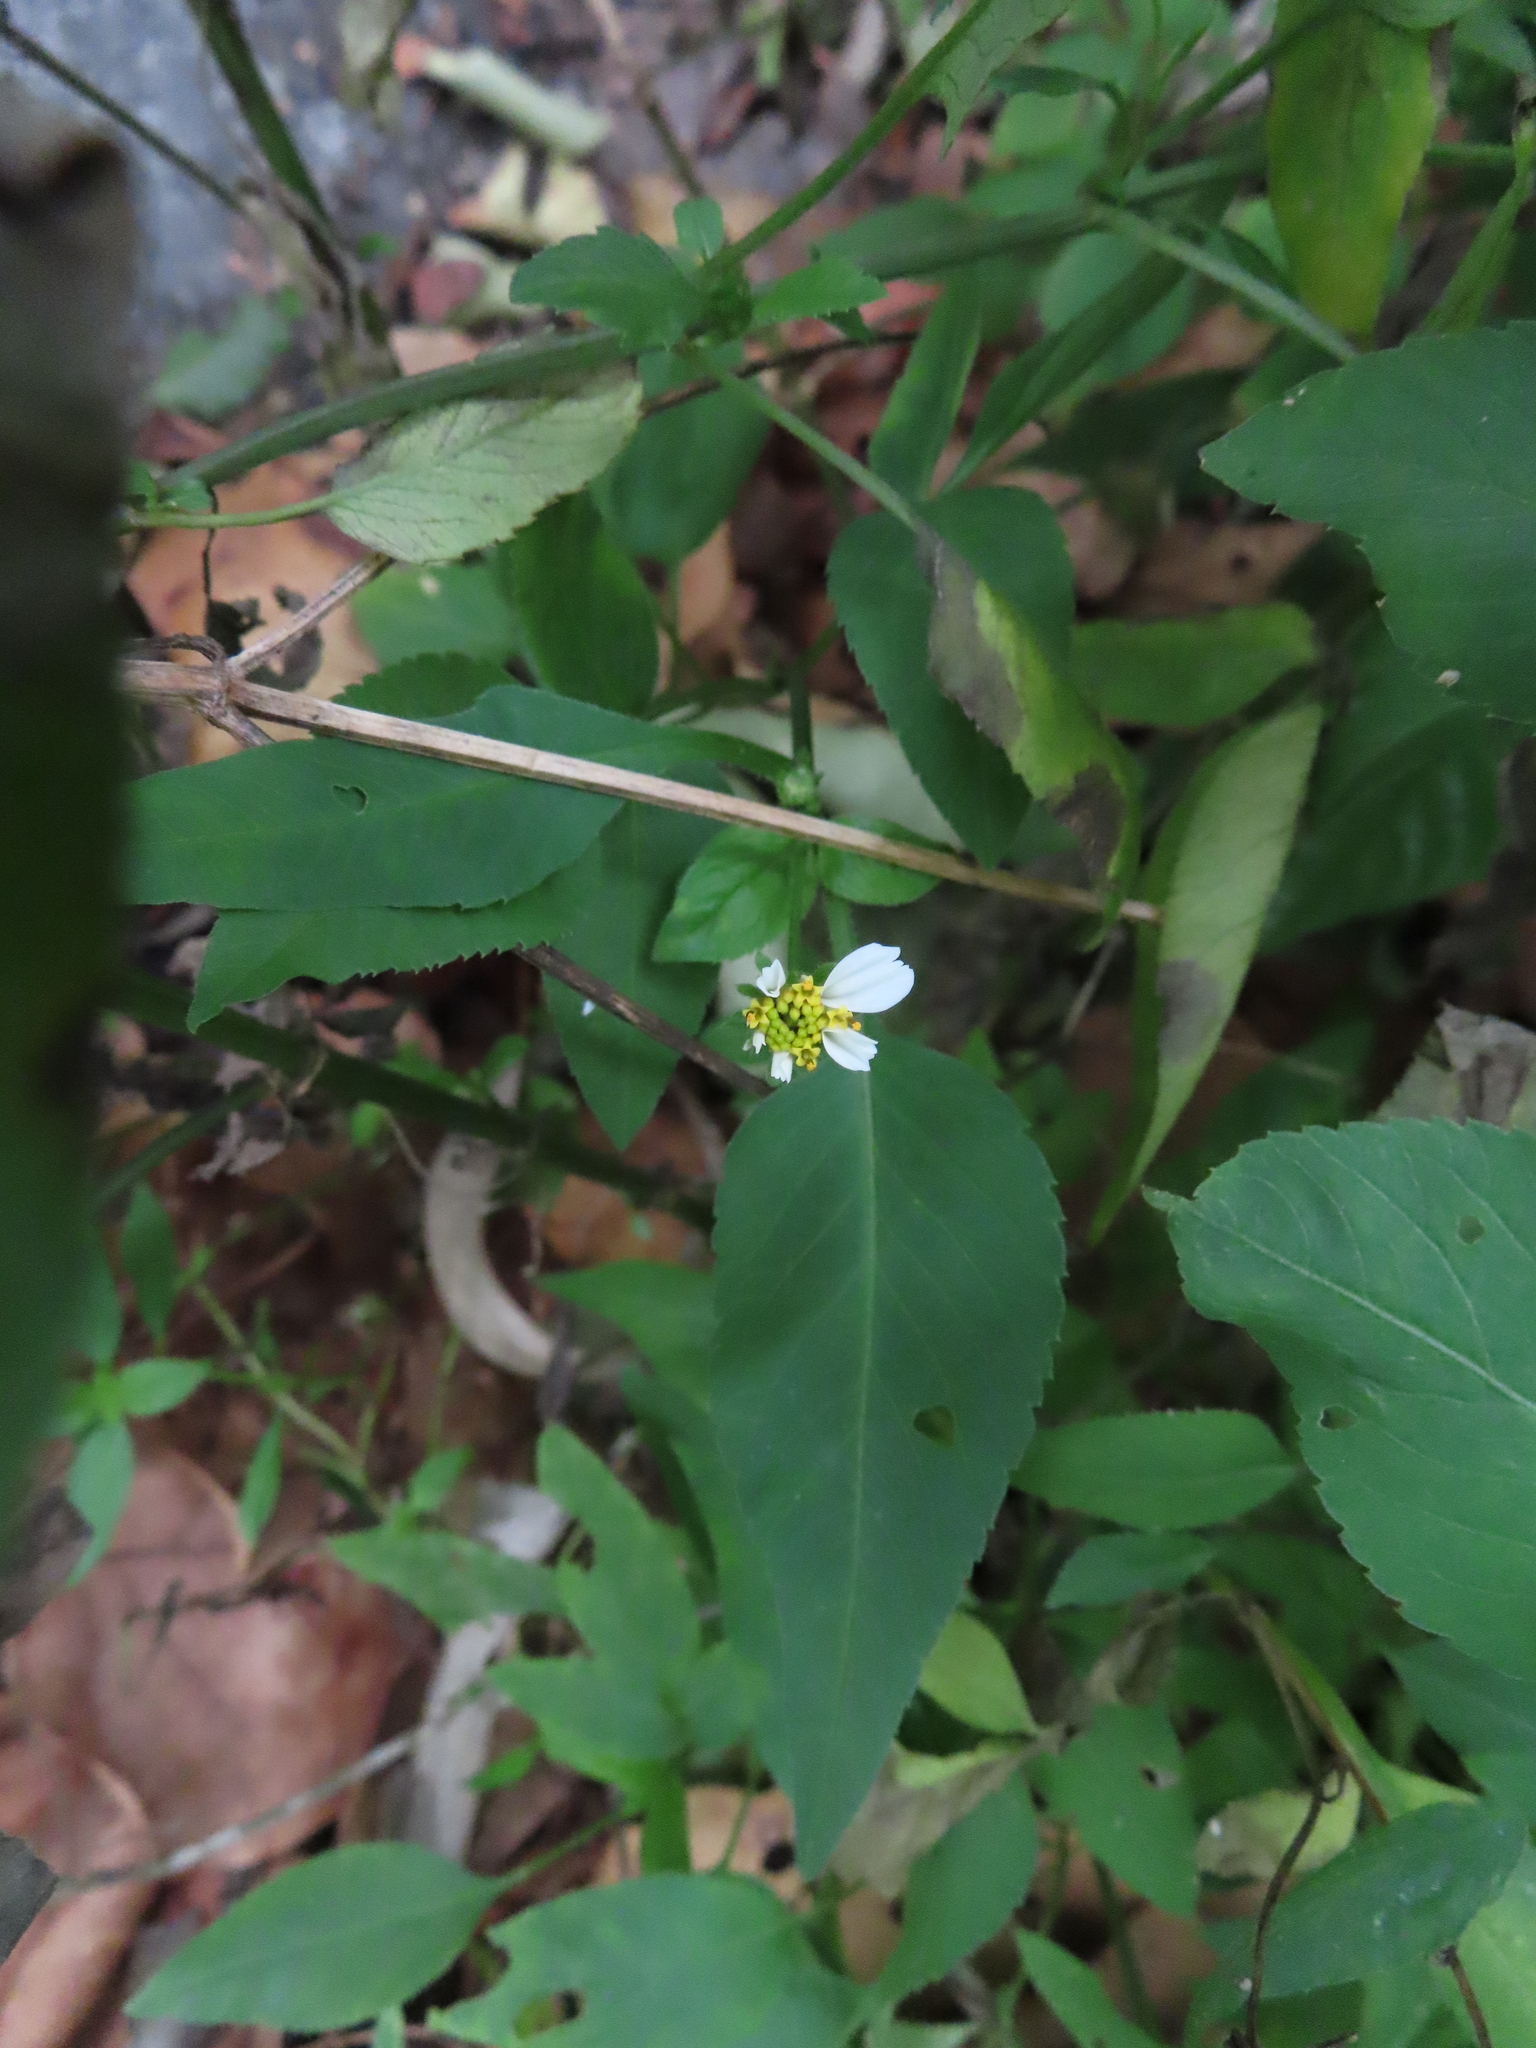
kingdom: Plantae
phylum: Tracheophyta
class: Magnoliopsida
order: Asterales
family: Asteraceae
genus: Bidens
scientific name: Bidens alba
